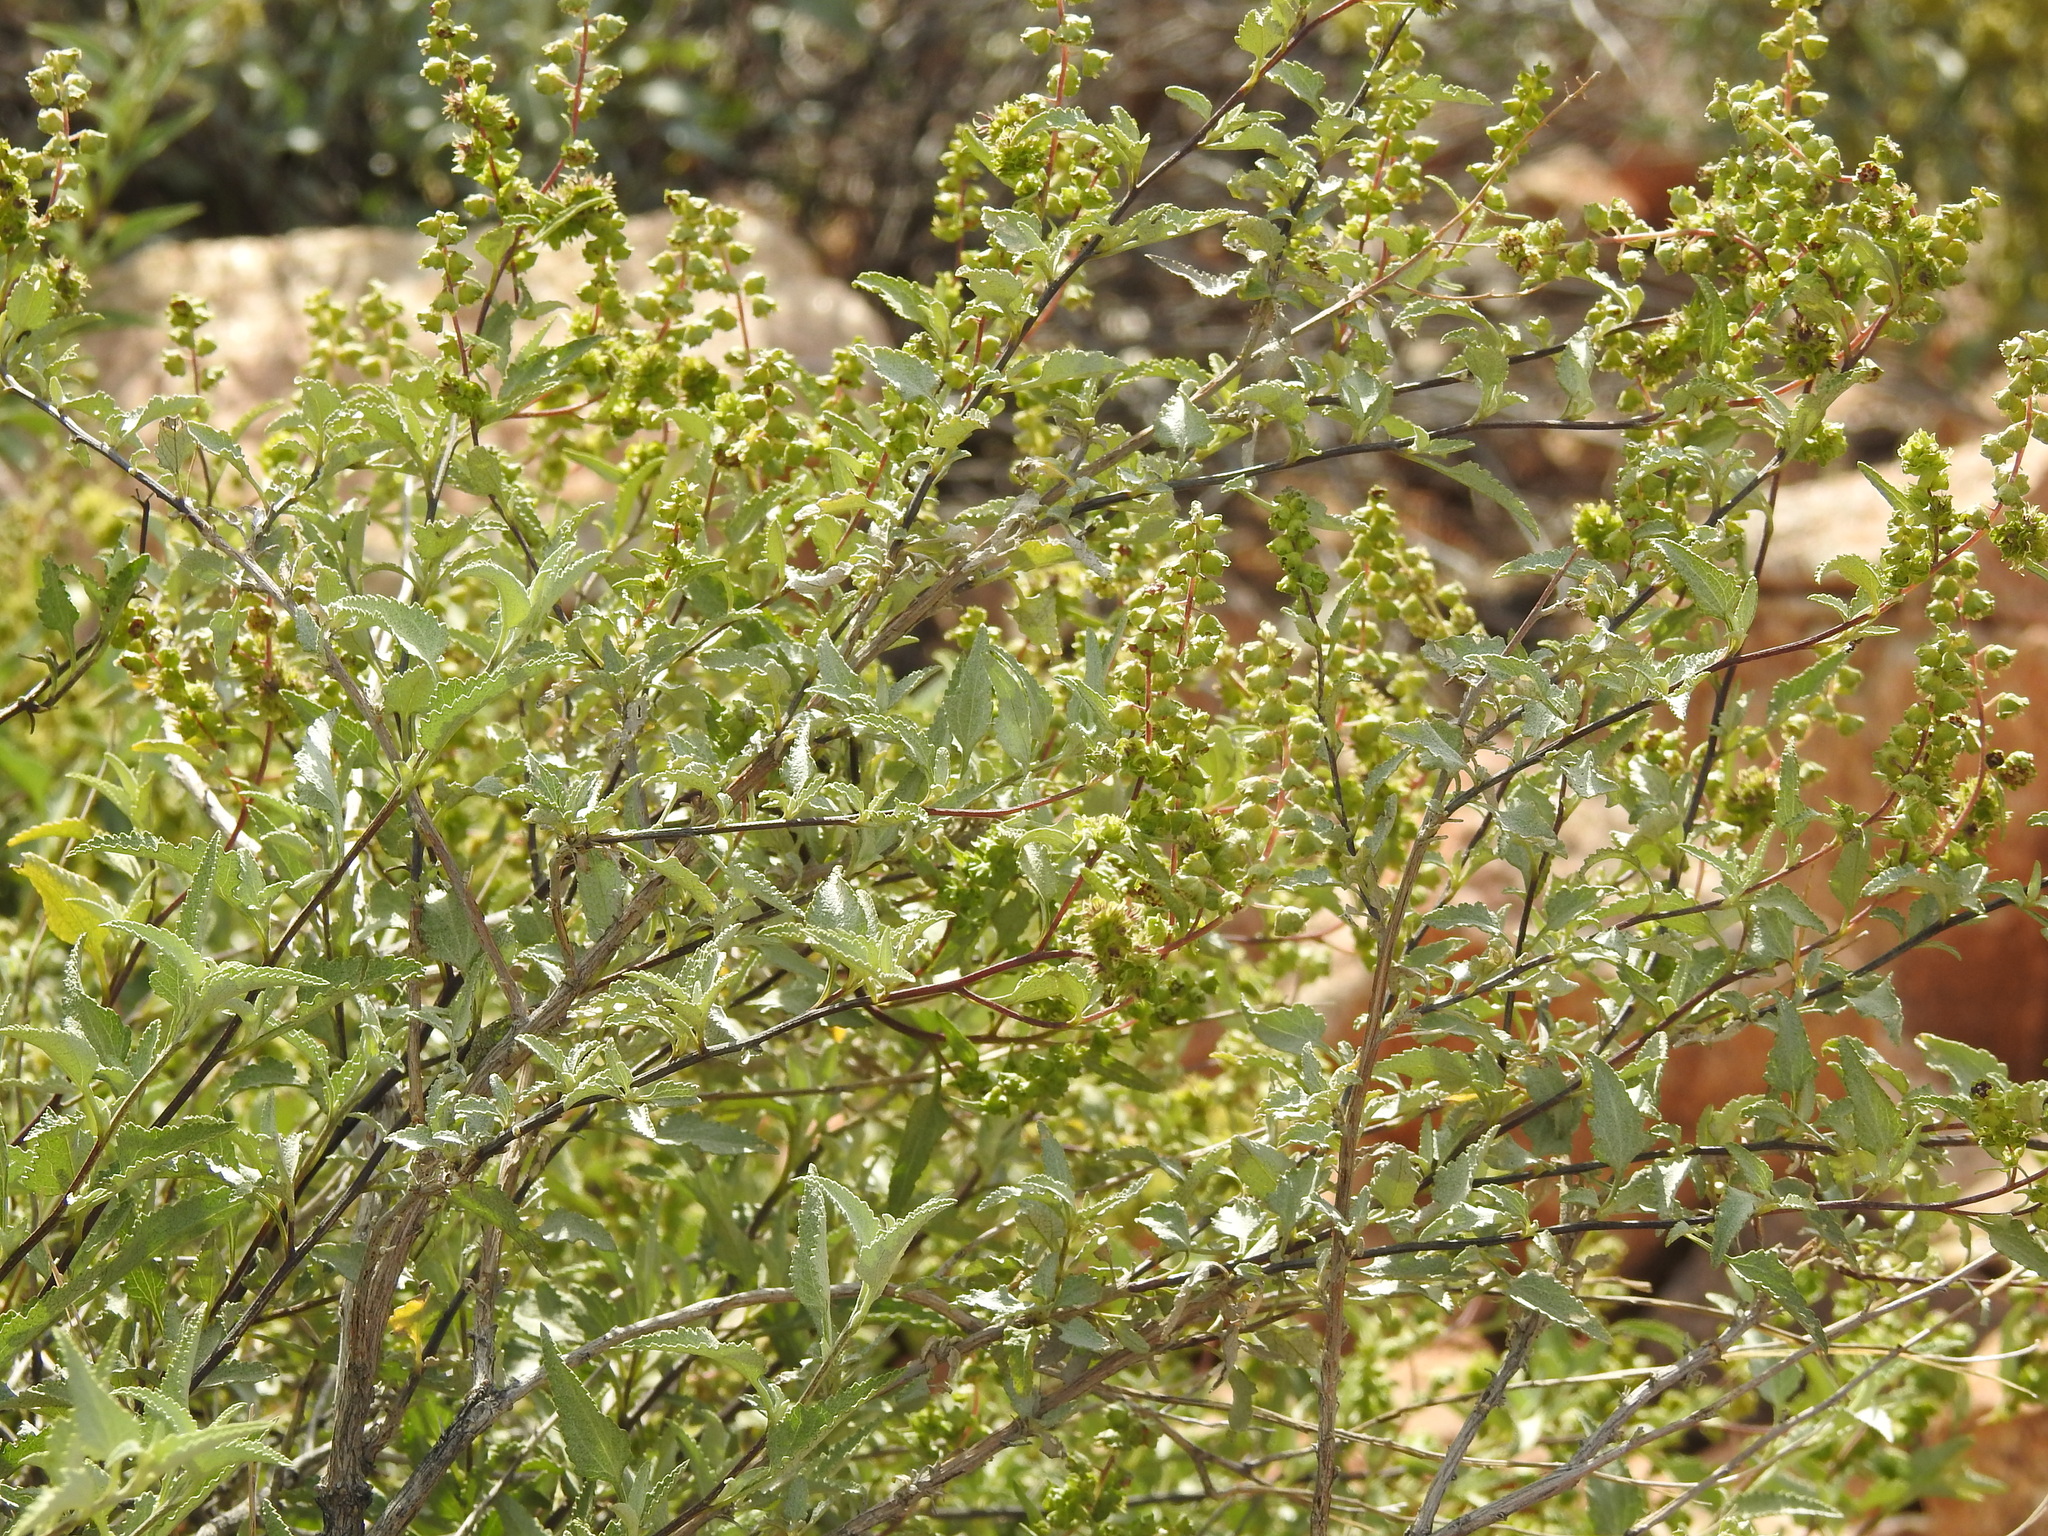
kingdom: Plantae
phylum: Tracheophyta
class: Magnoliopsida
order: Asterales
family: Asteraceae
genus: Ambrosia
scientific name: Ambrosia deltoidea
